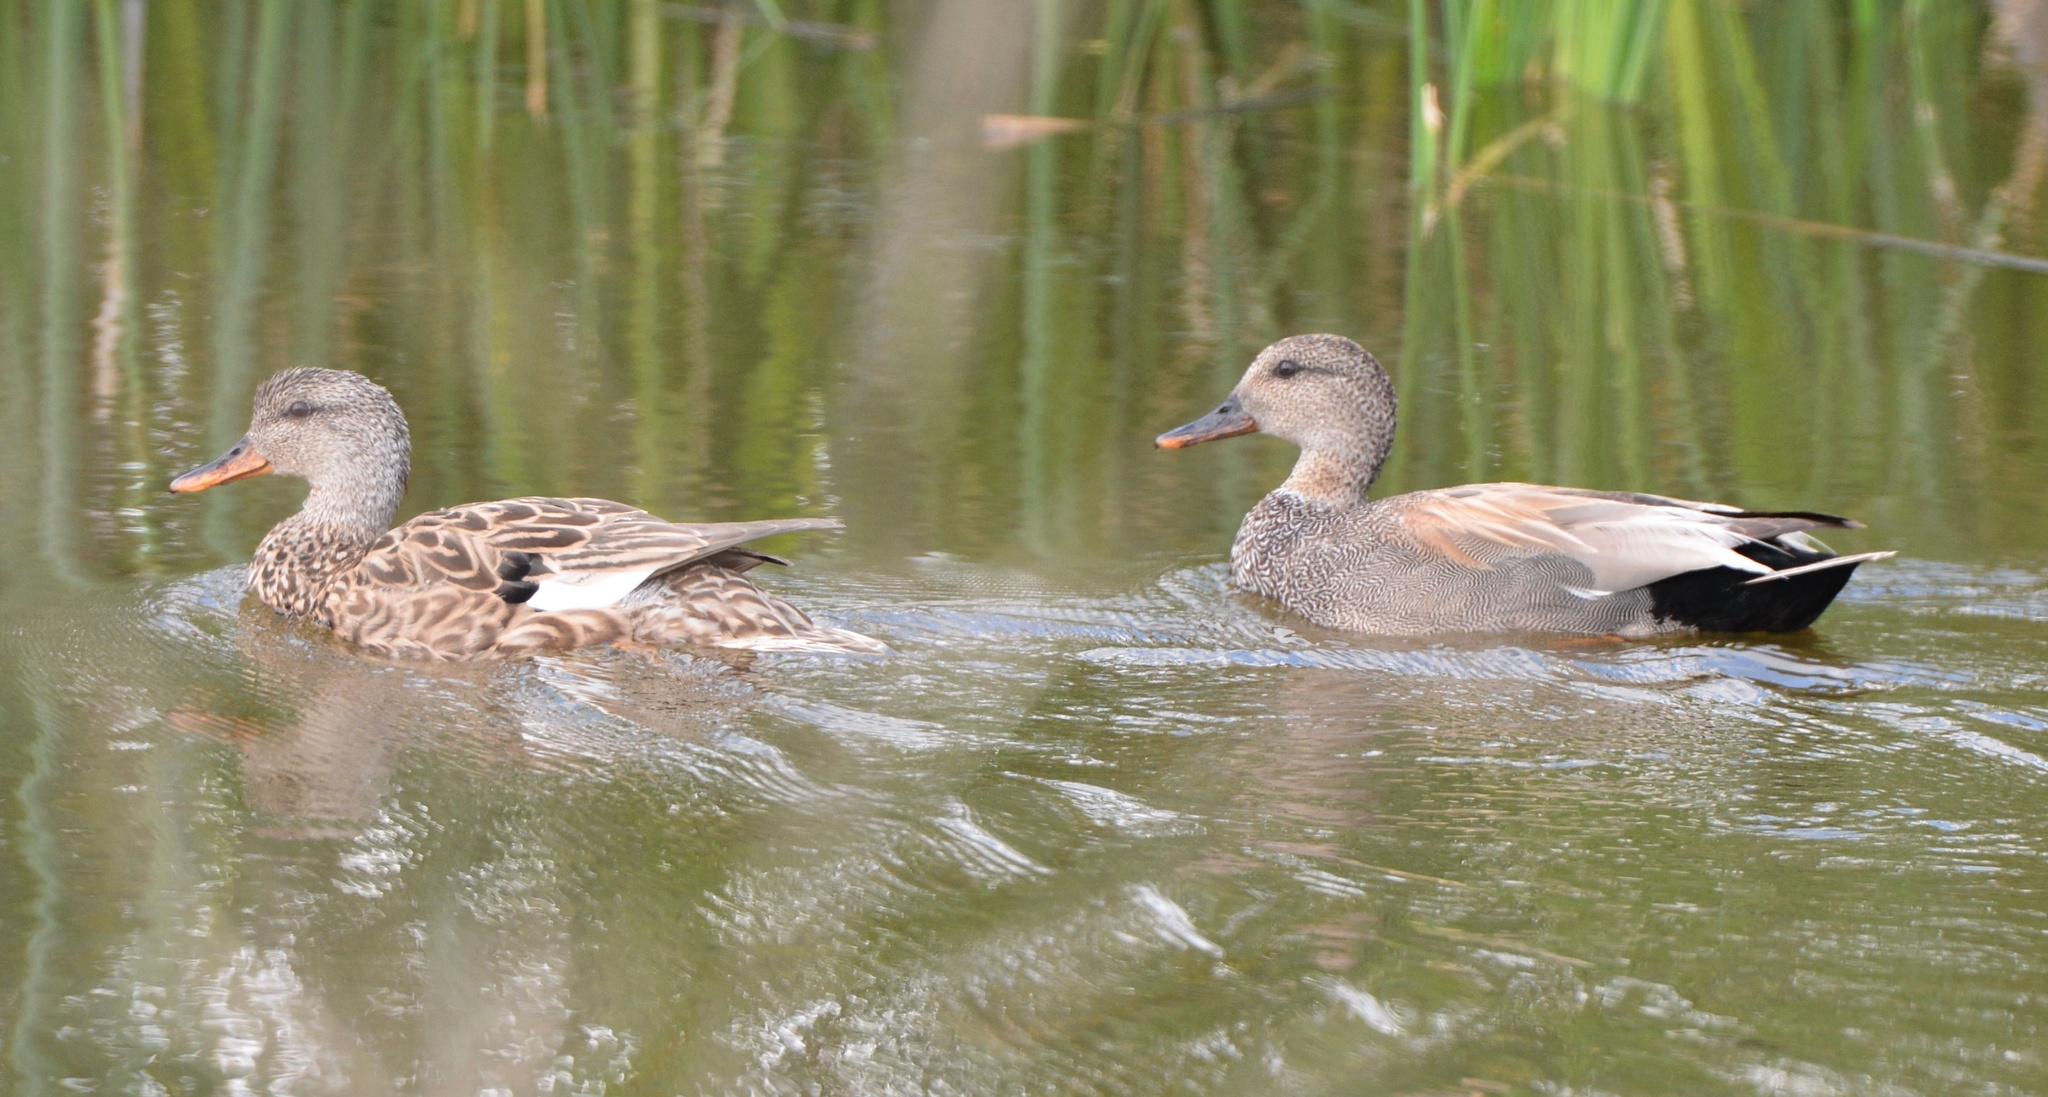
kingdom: Animalia
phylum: Chordata
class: Aves
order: Anseriformes
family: Anatidae
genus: Mareca
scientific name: Mareca strepera
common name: Gadwall
